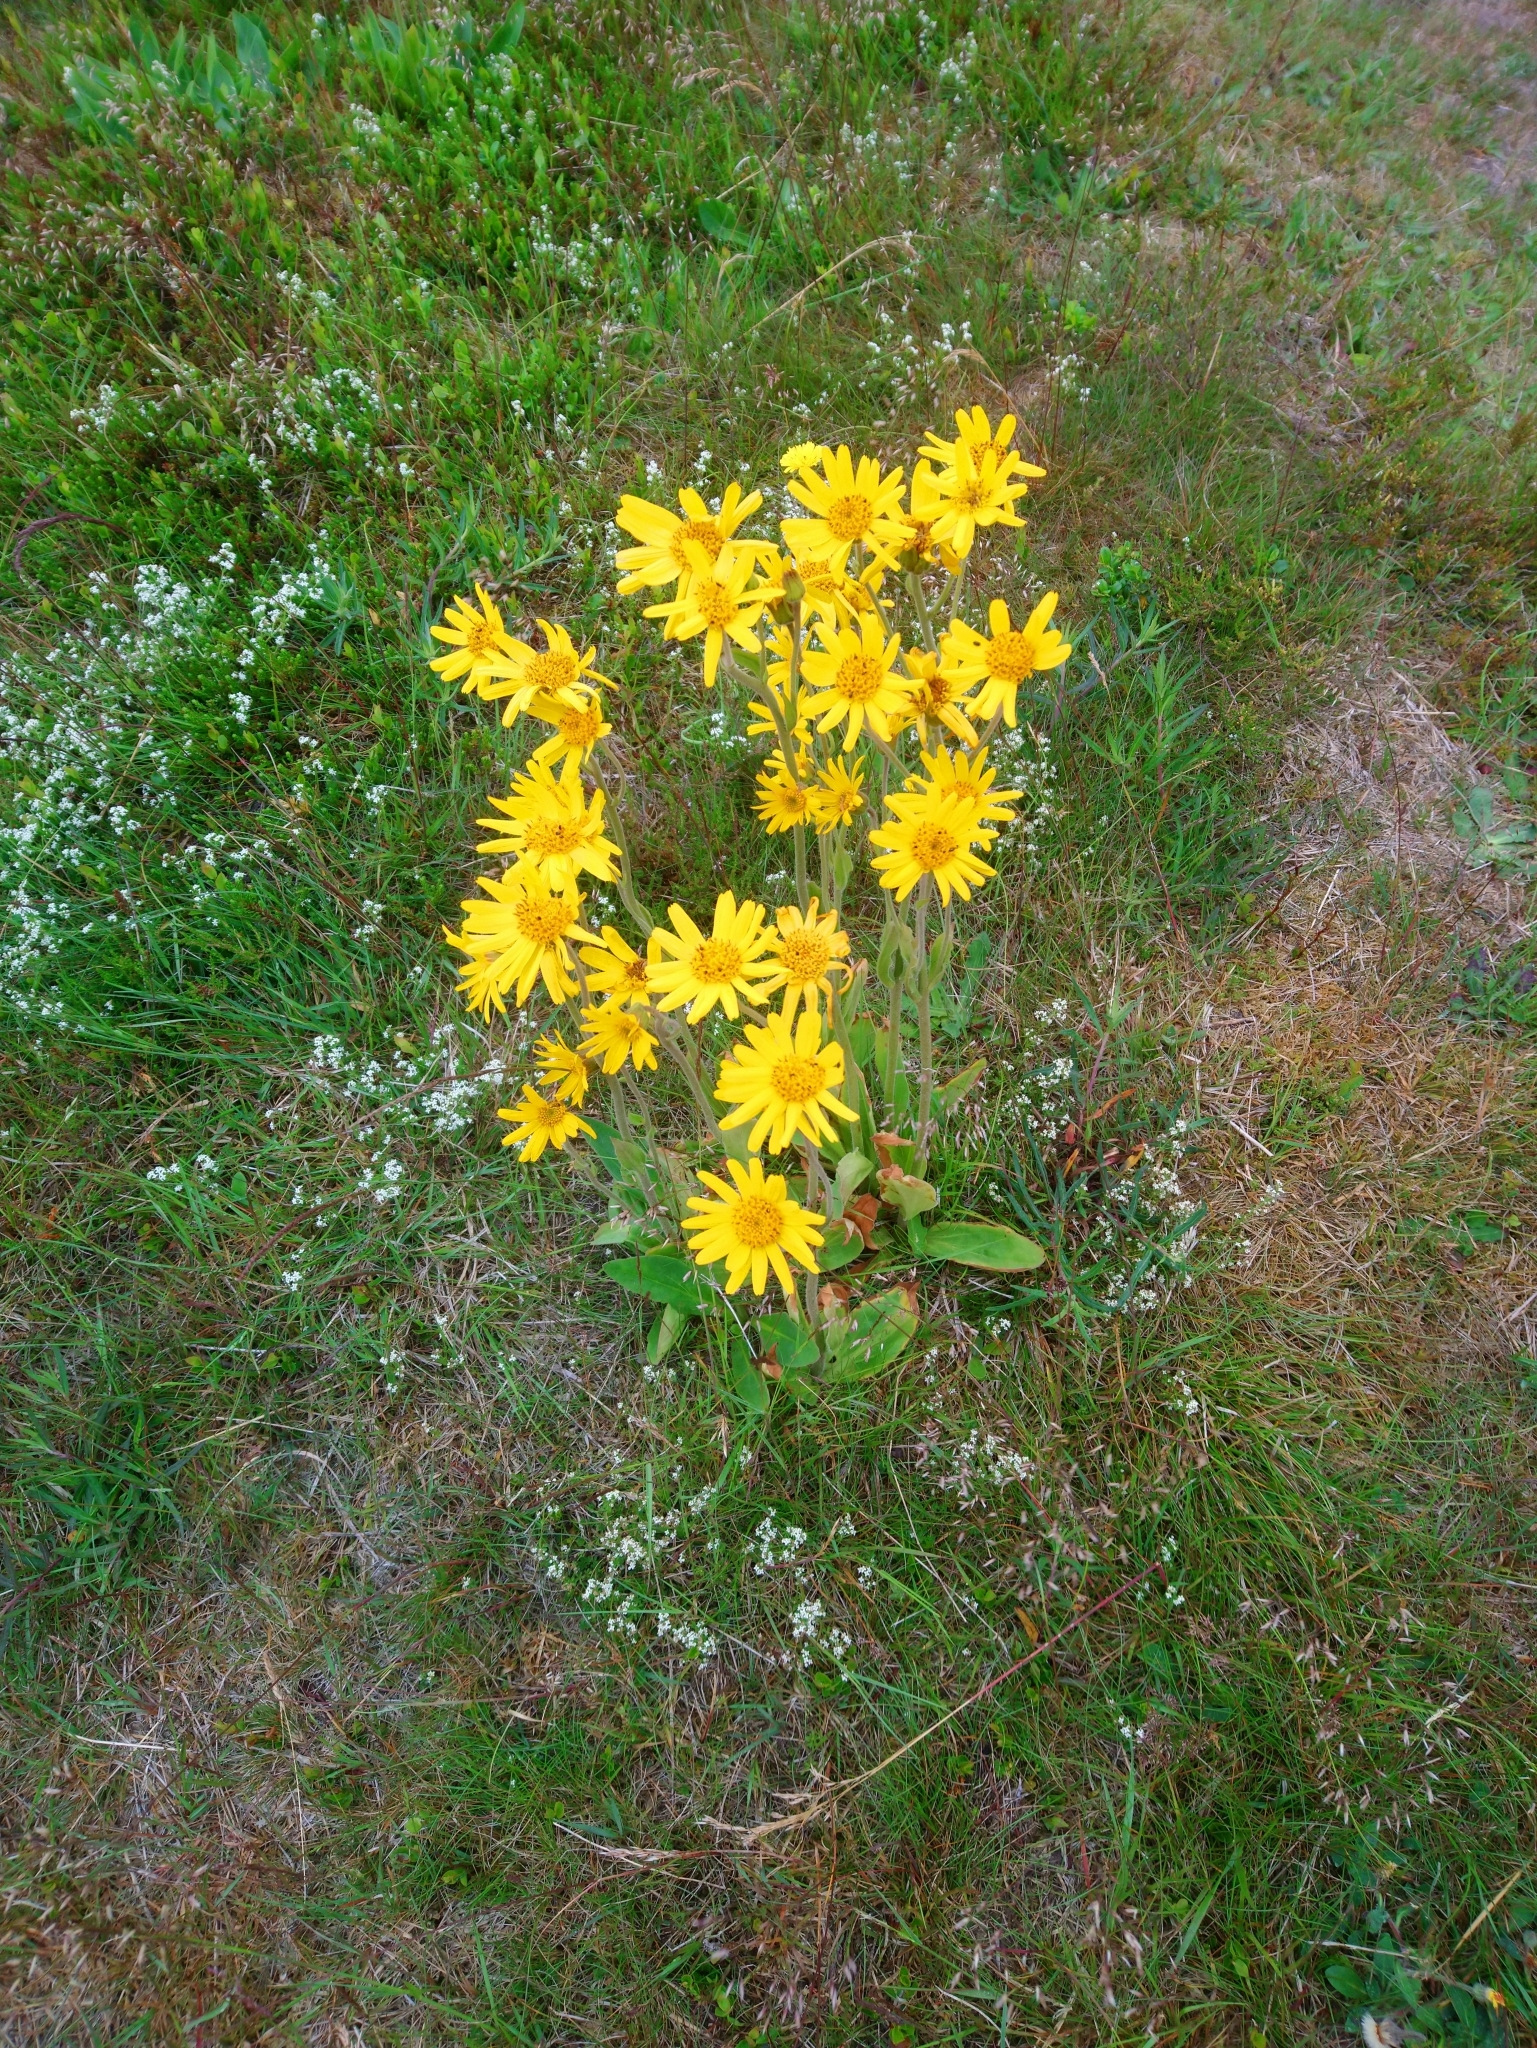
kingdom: Plantae
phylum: Tracheophyta
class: Magnoliopsida
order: Asterales
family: Asteraceae
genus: Arnica
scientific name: Arnica montana
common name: Leopard's bane
